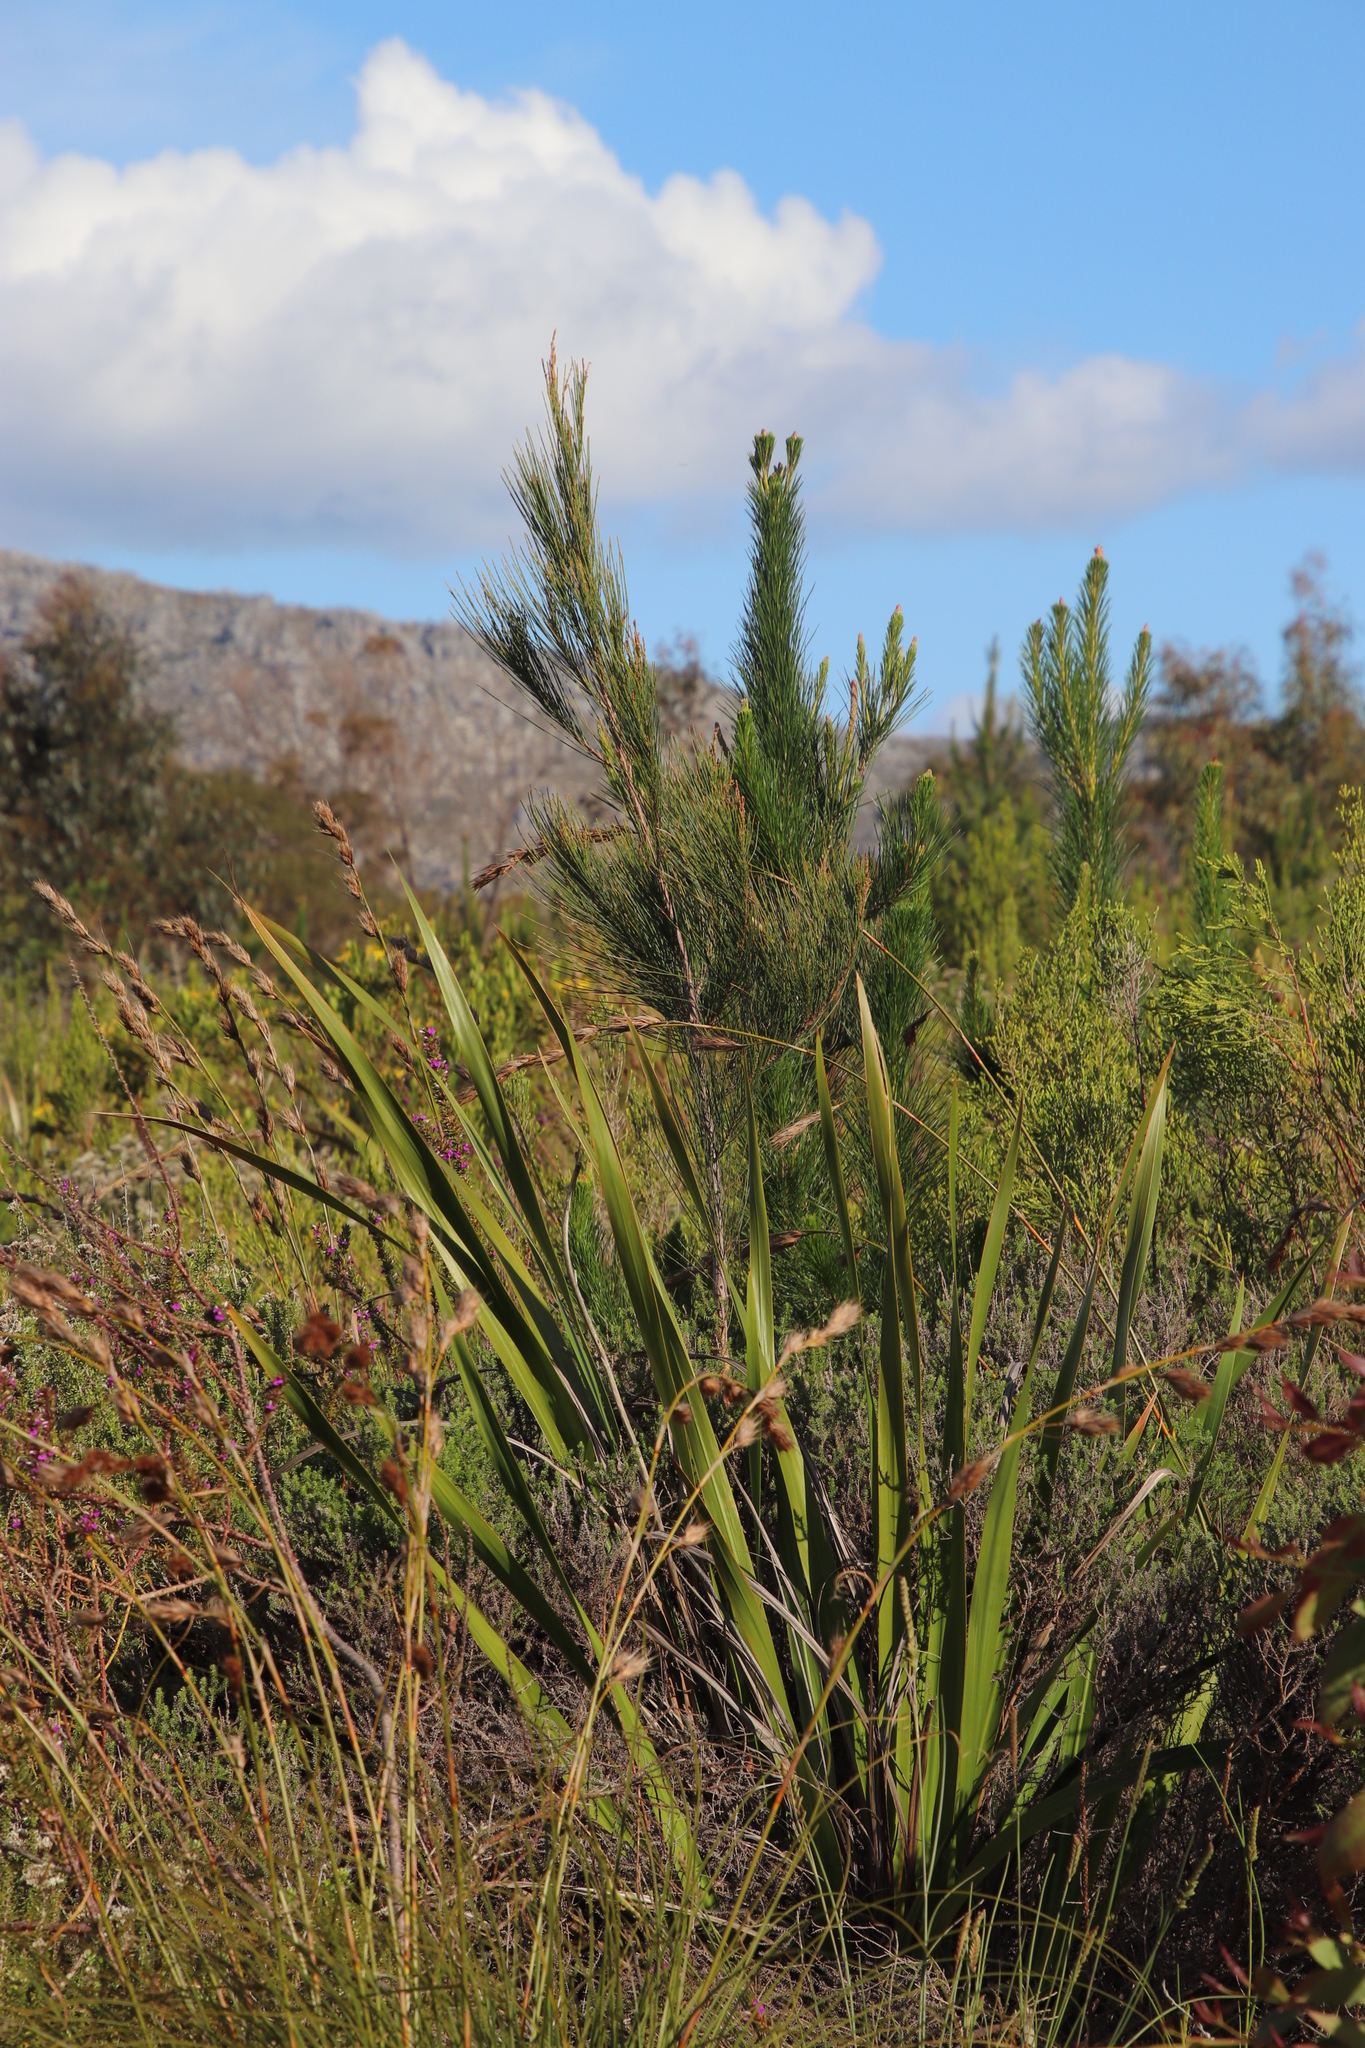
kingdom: Plantae
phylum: Tracheophyta
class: Magnoliopsida
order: Fagales
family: Casuarinaceae
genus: Casuarina
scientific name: Casuarina cunninghamiana
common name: River sheoak
